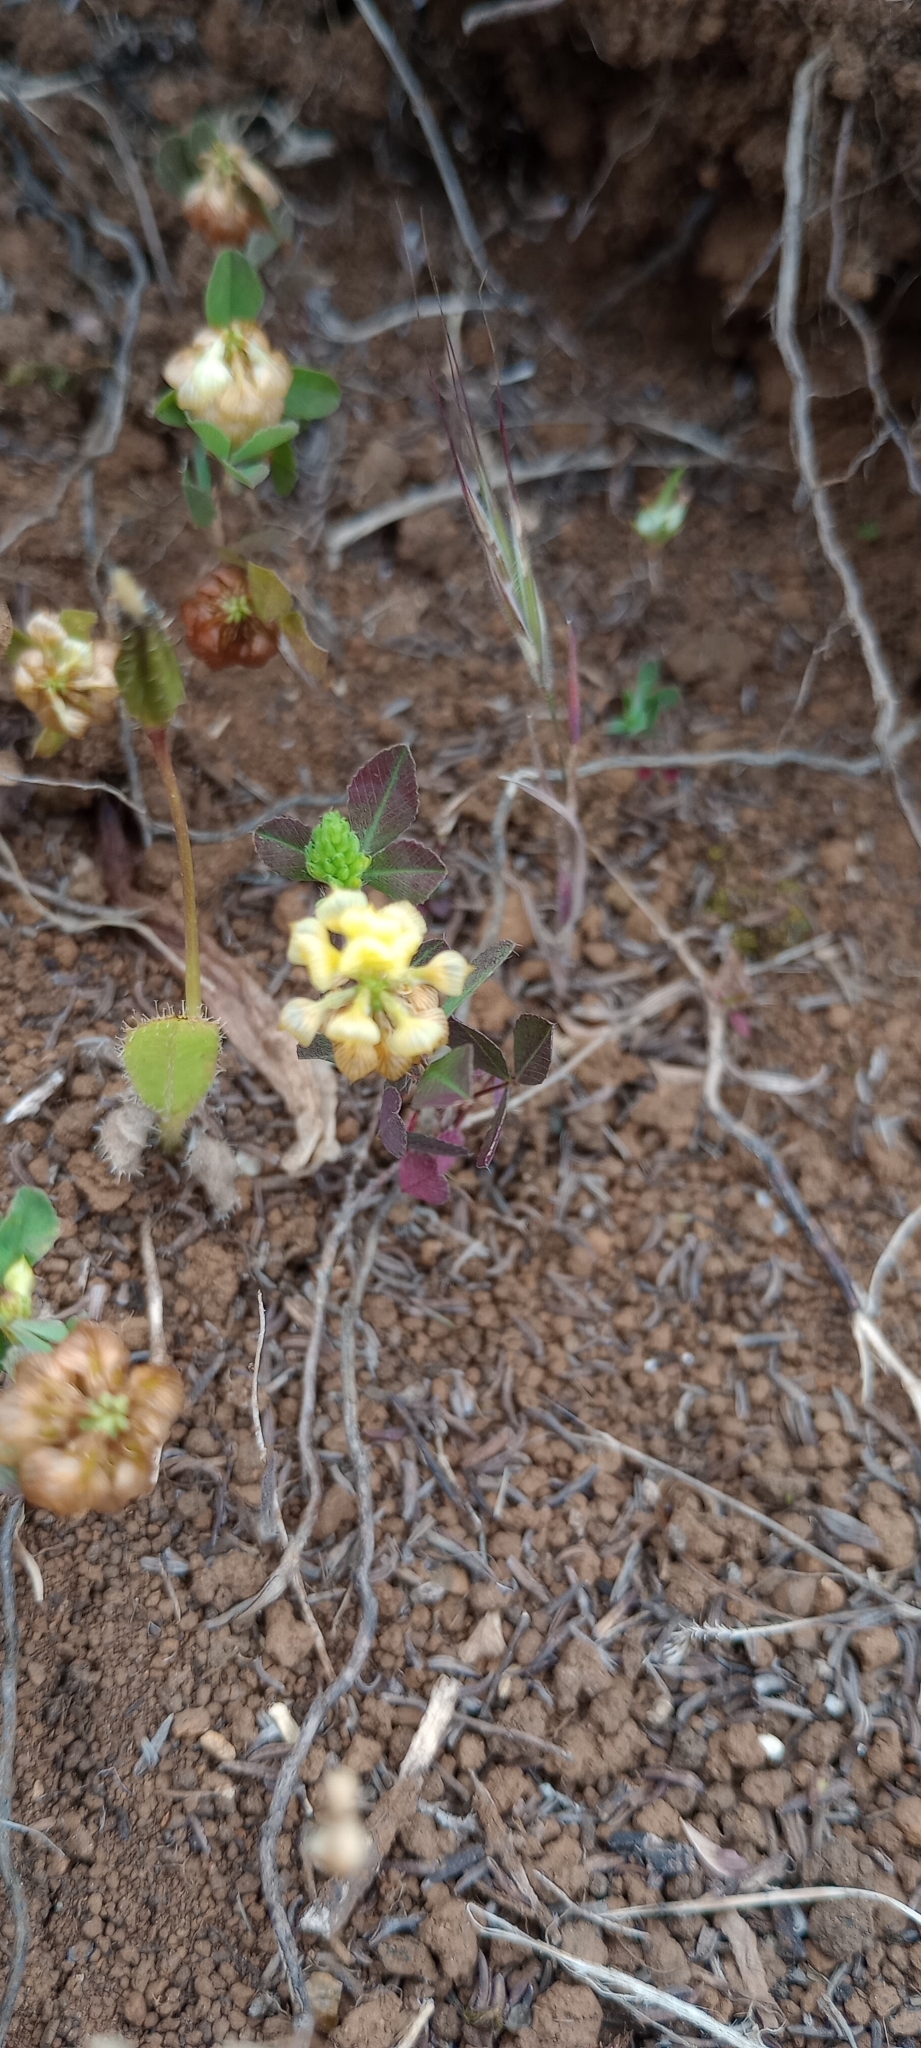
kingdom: Plantae
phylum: Tracheophyta
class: Magnoliopsida
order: Fabales
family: Fabaceae
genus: Trifolium
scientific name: Trifolium campestre
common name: Field clover
